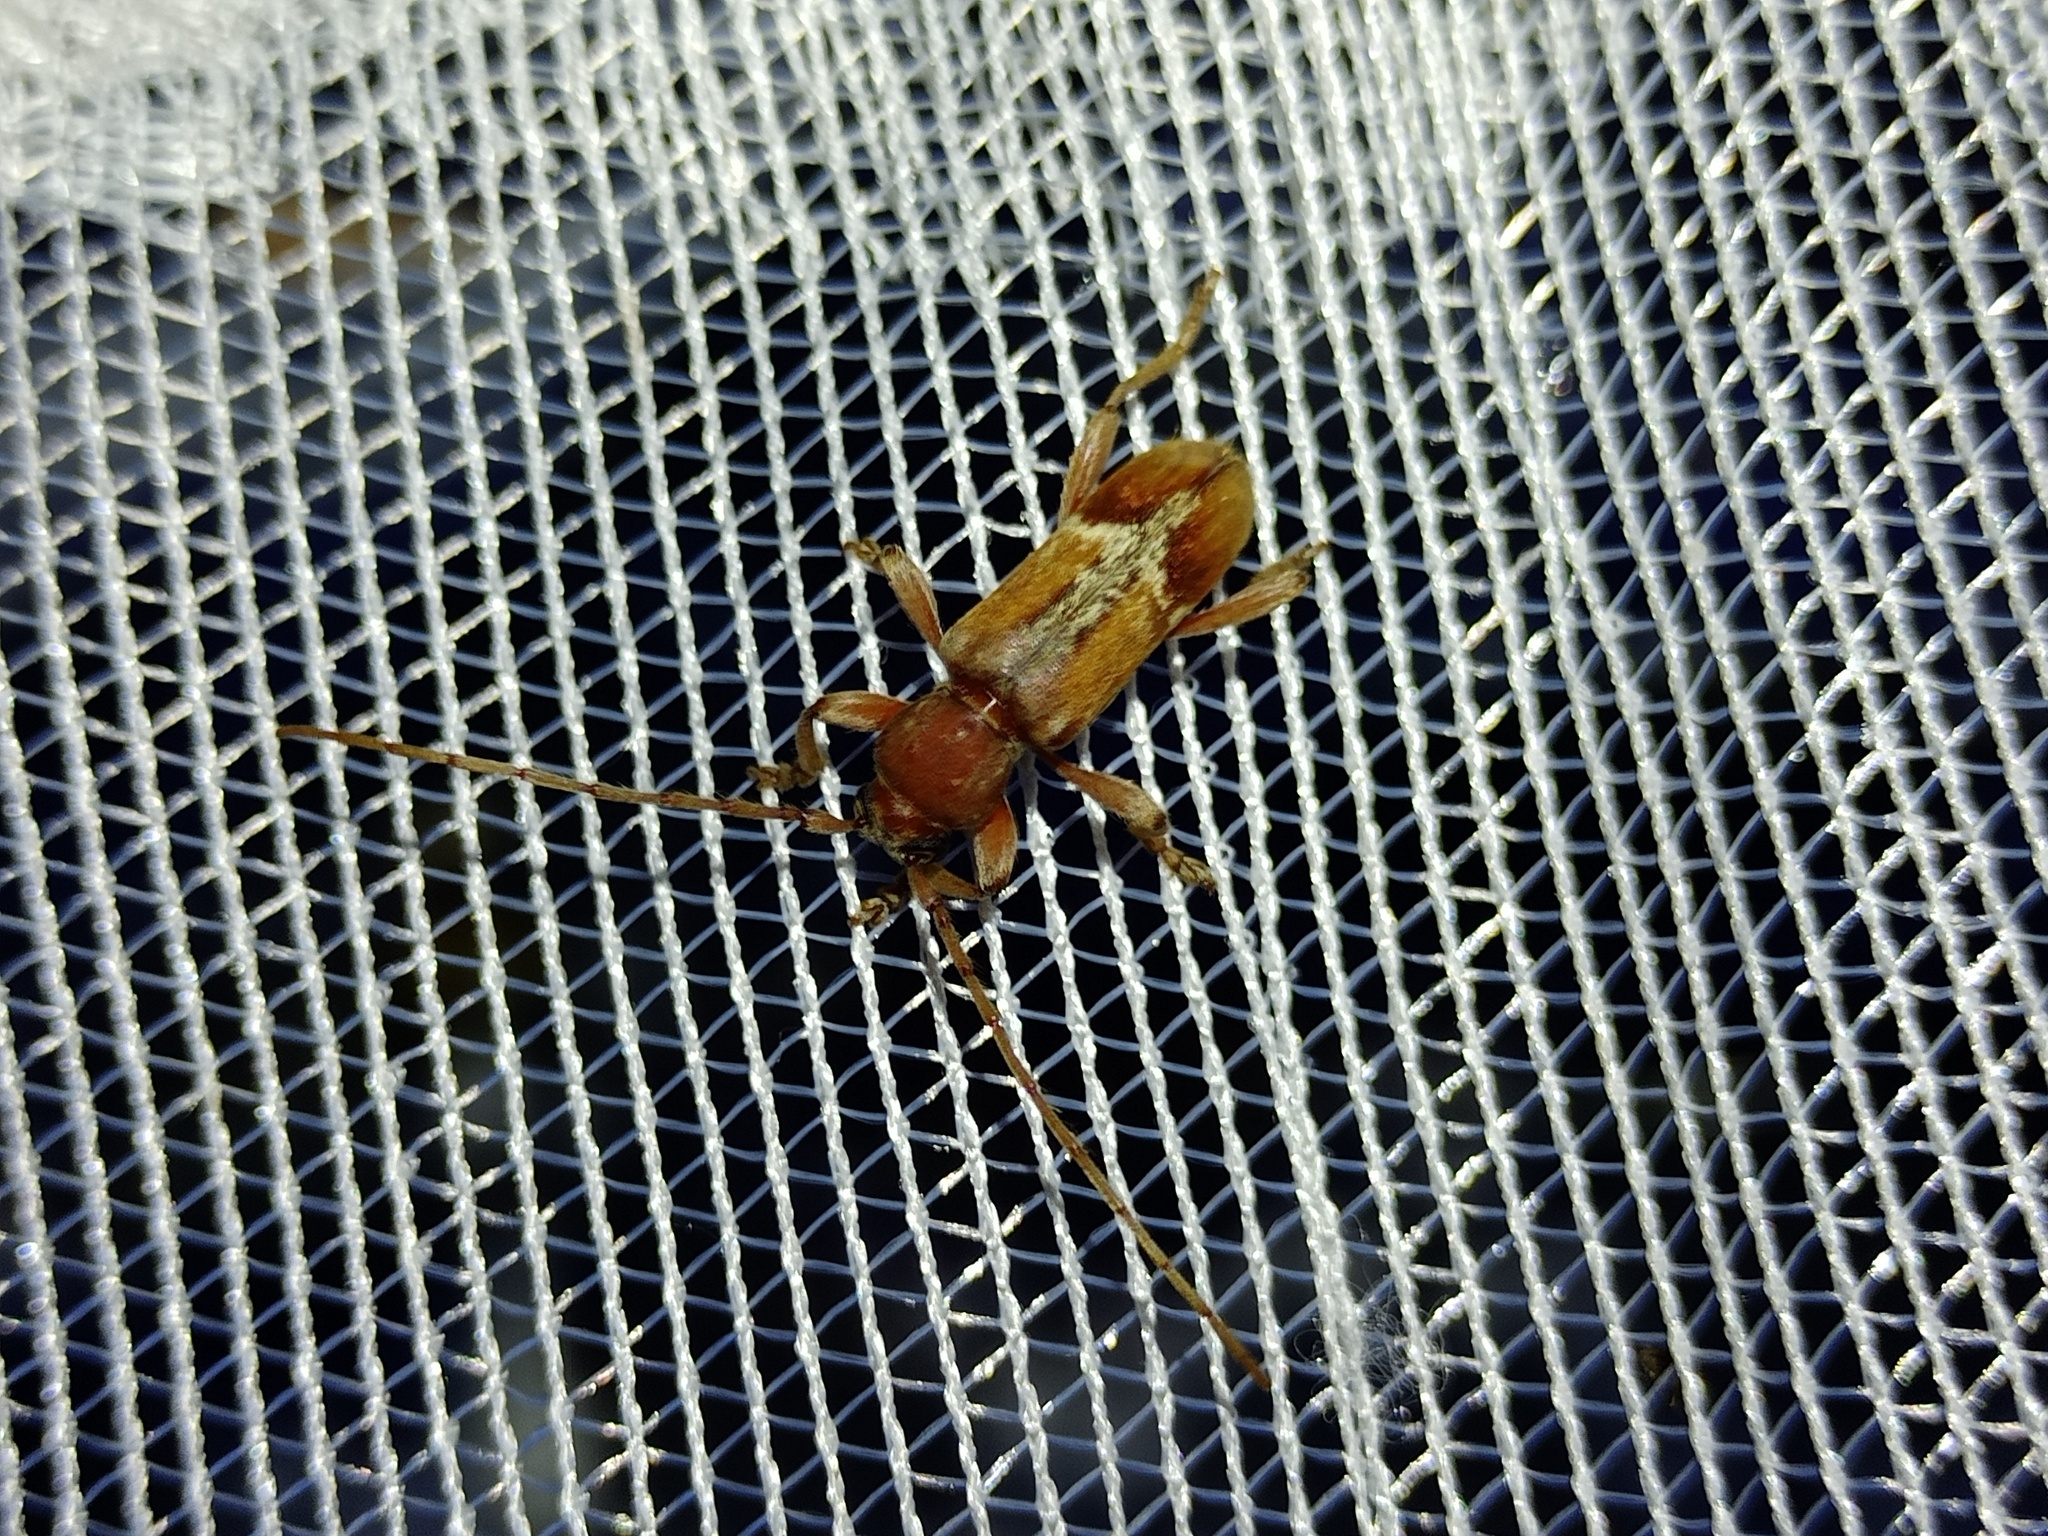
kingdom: Animalia
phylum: Arthropoda
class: Insecta
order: Coleoptera
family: Cerambycidae
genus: Trichoferus
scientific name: Trichoferus pallidus
